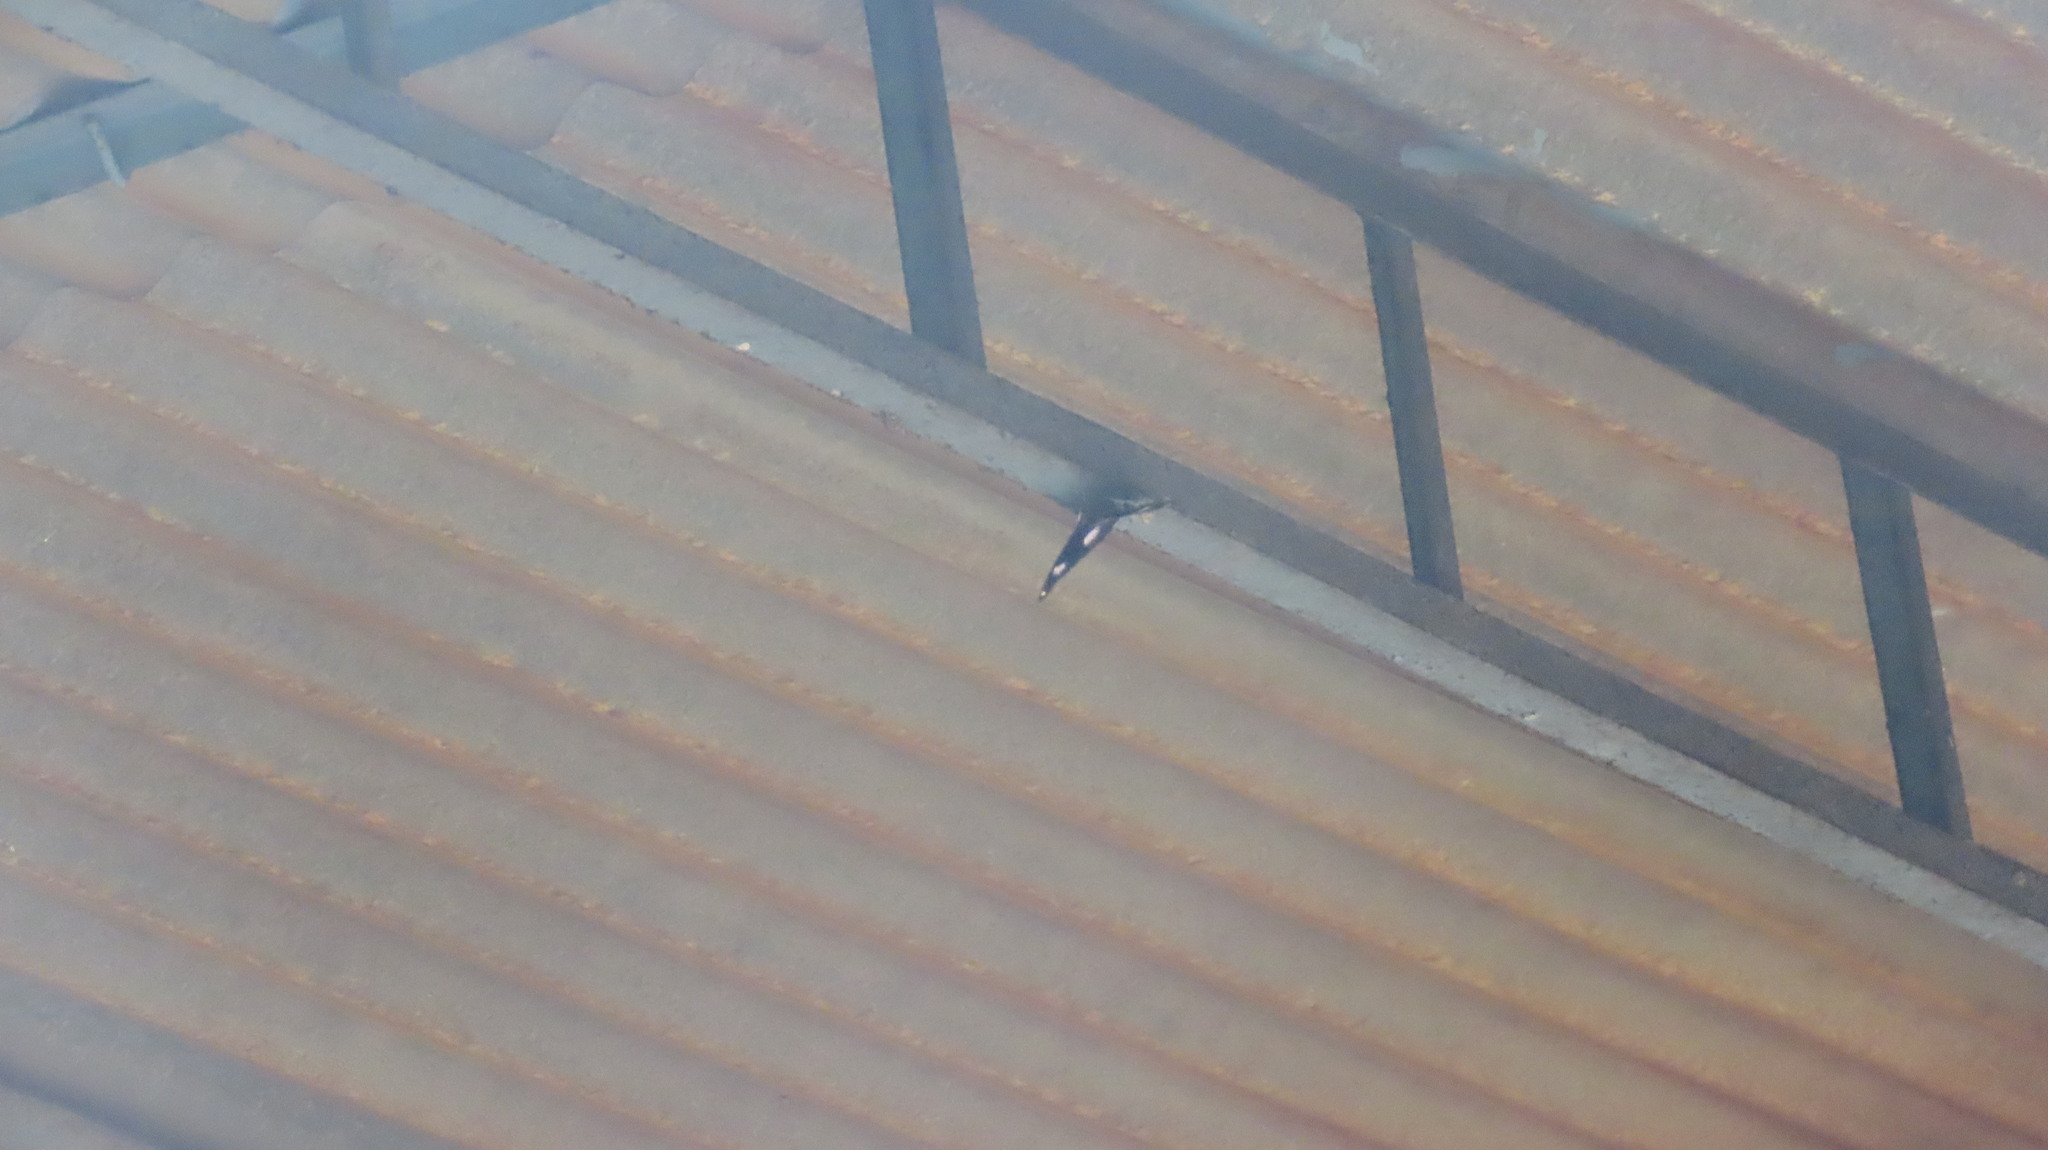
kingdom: Animalia
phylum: Arthropoda
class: Insecta
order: Lepidoptera
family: Nymphalidae
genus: Hypolimnas
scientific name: Hypolimnas bolina
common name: Great eggfly
